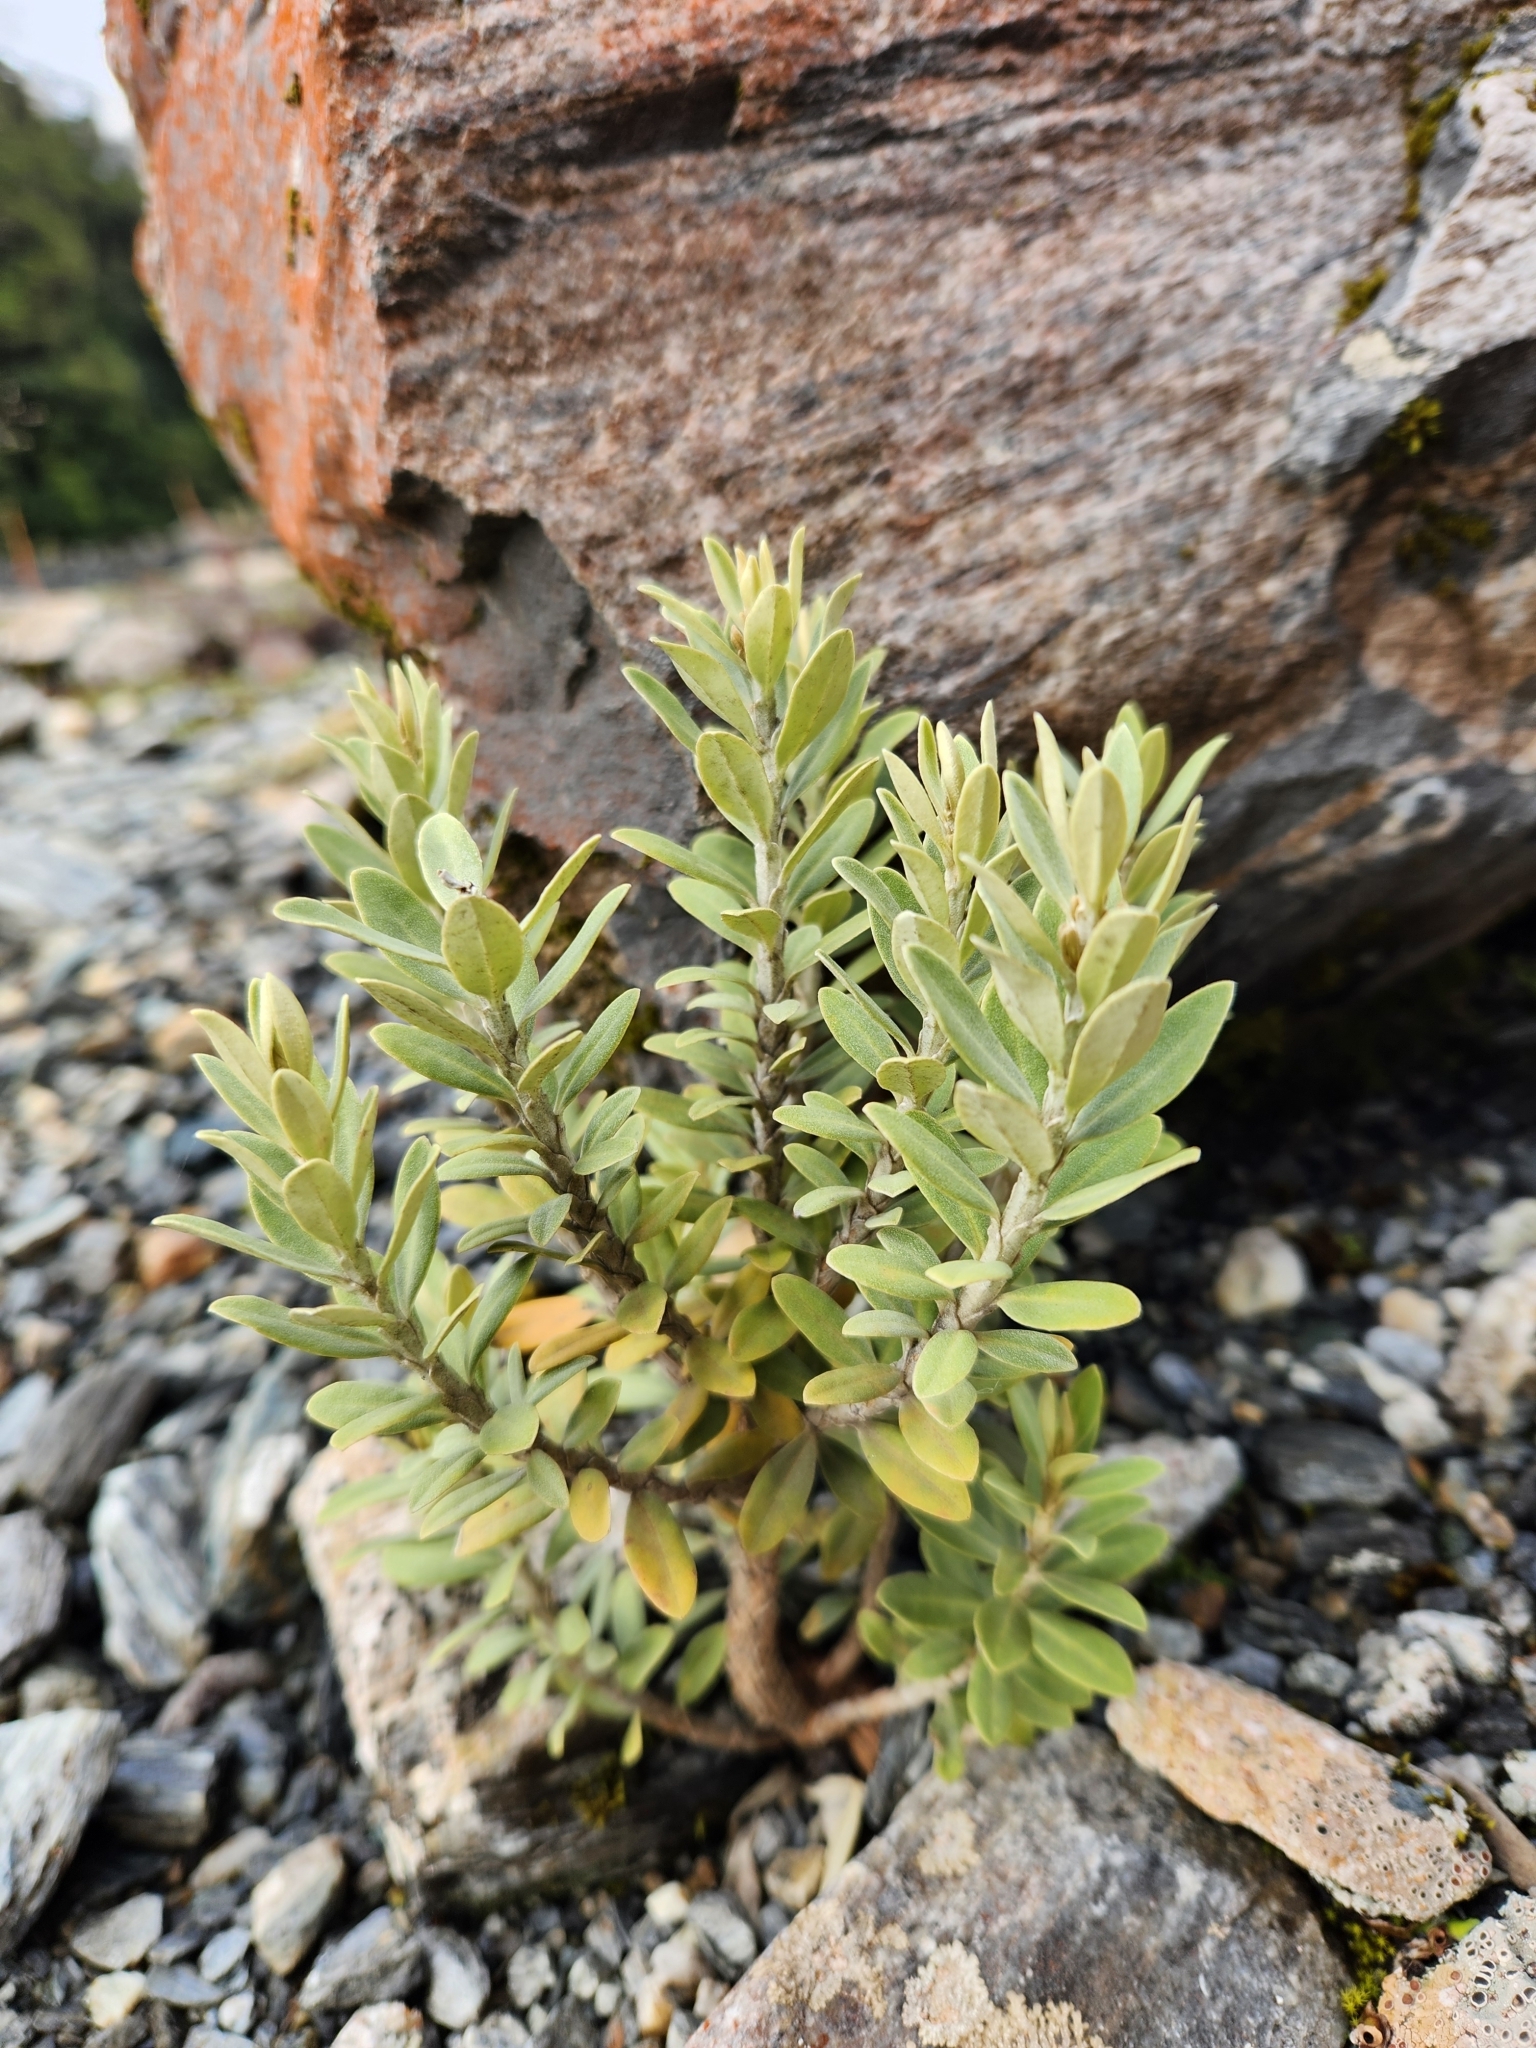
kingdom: Plantae
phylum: Tracheophyta
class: Magnoliopsida
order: Asterales
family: Asteraceae
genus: Olearia
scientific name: Olearia moschata
